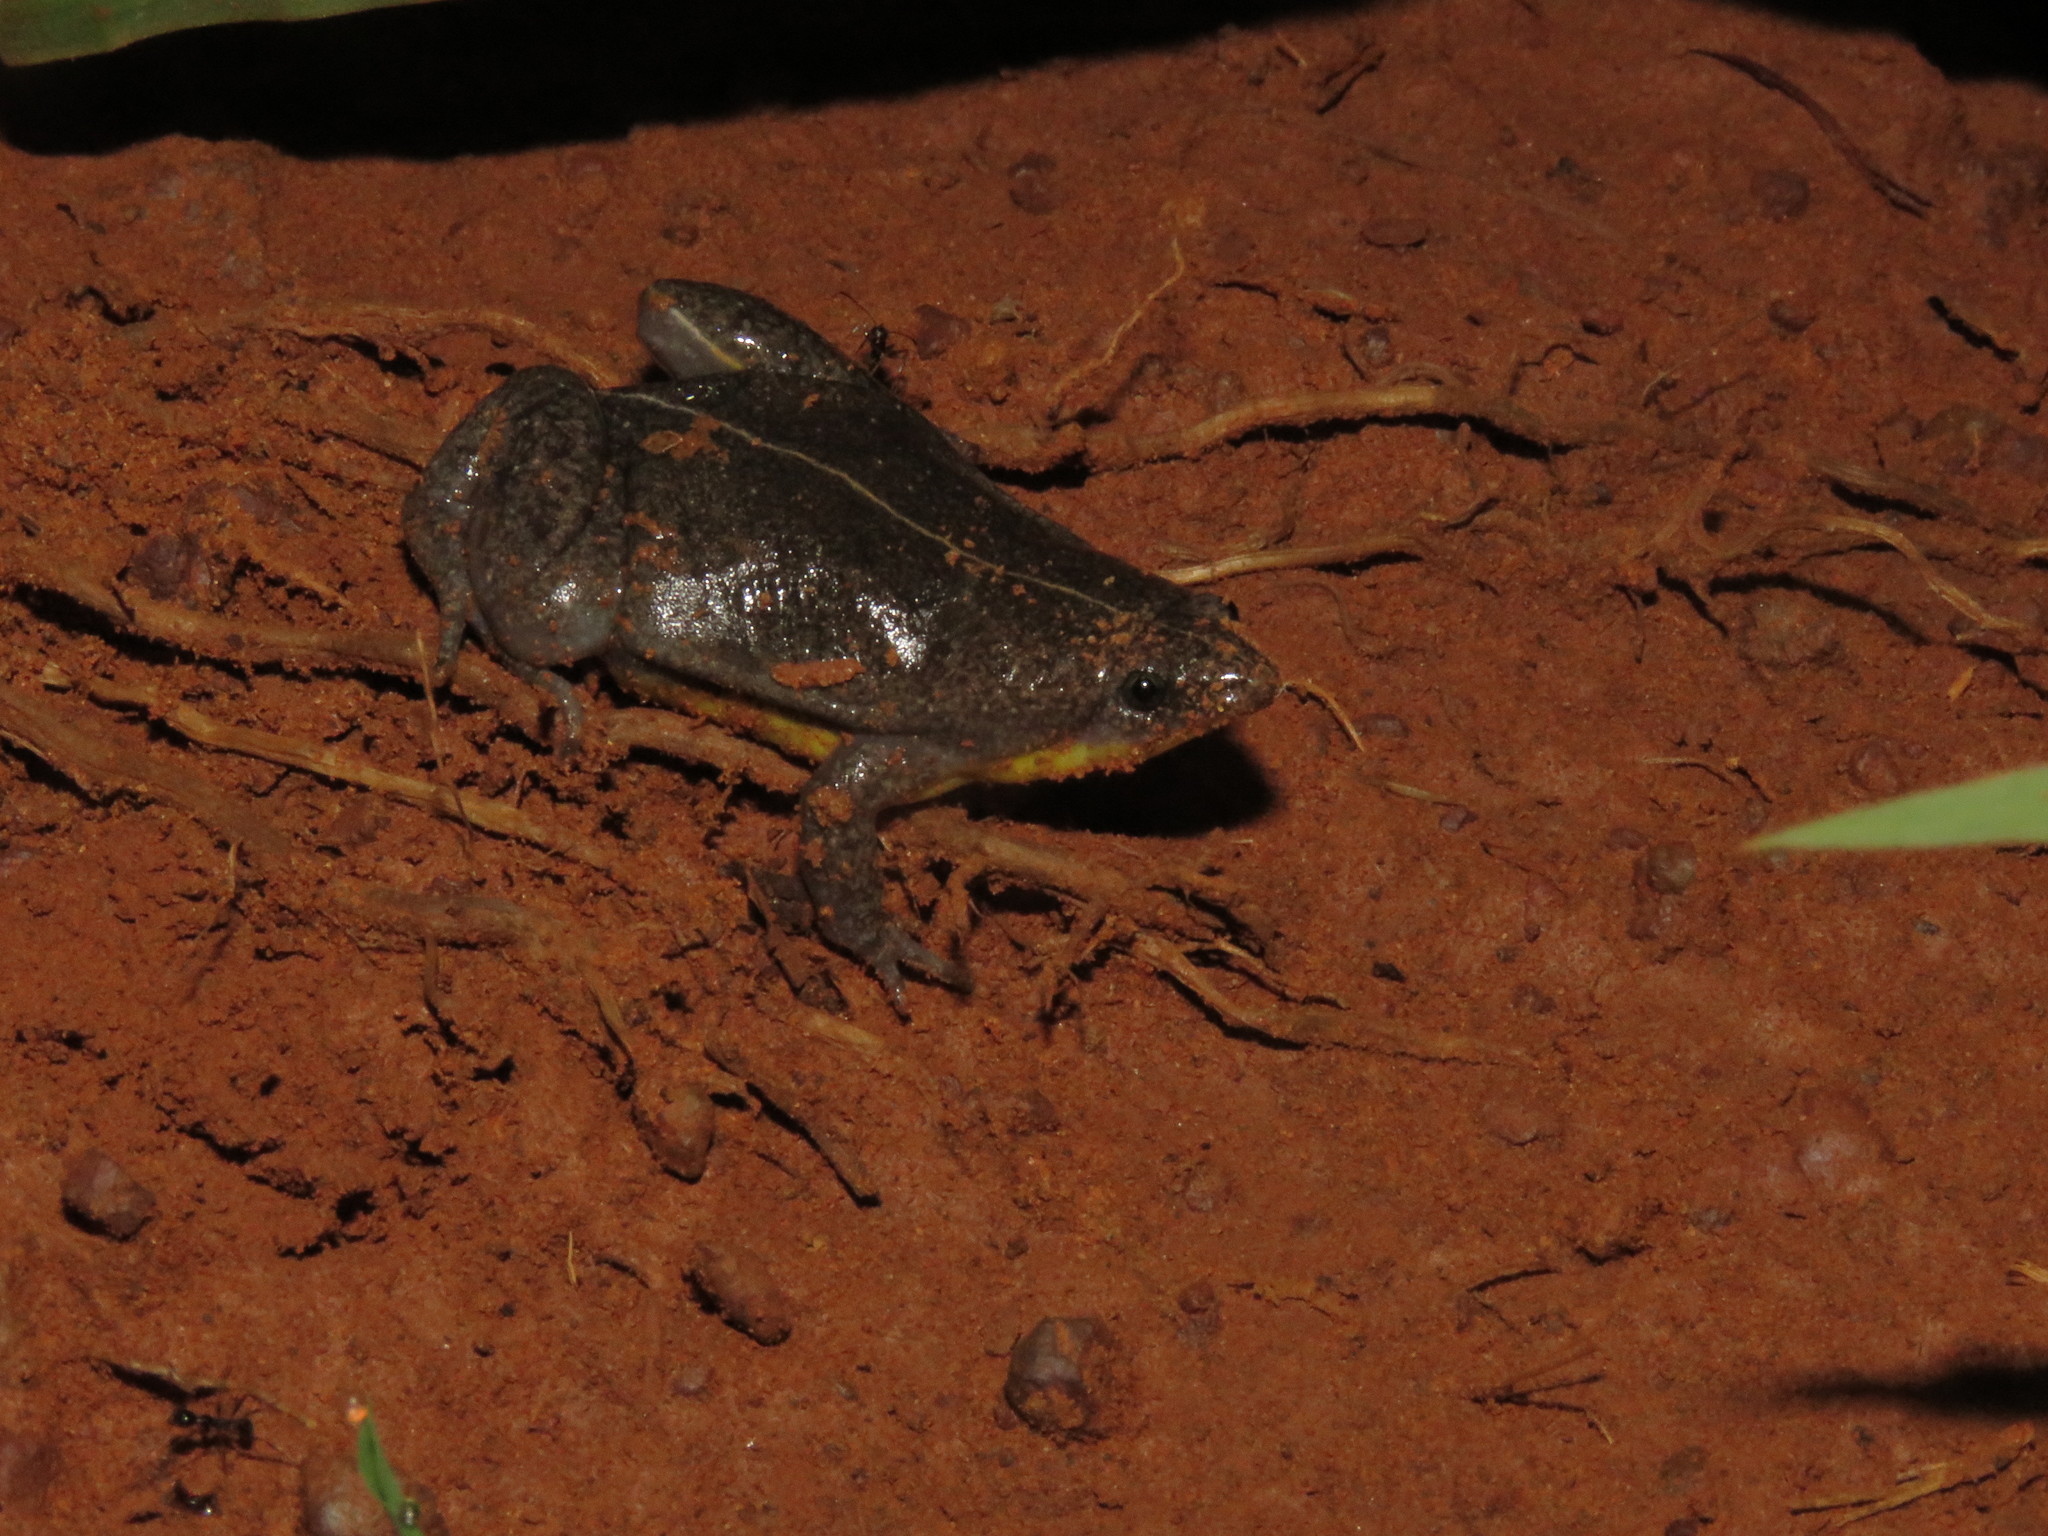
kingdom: Animalia
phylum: Chordata
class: Amphibia
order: Anura
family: Microhylidae
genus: Elachistocleis
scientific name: Elachistocleis helianneae
